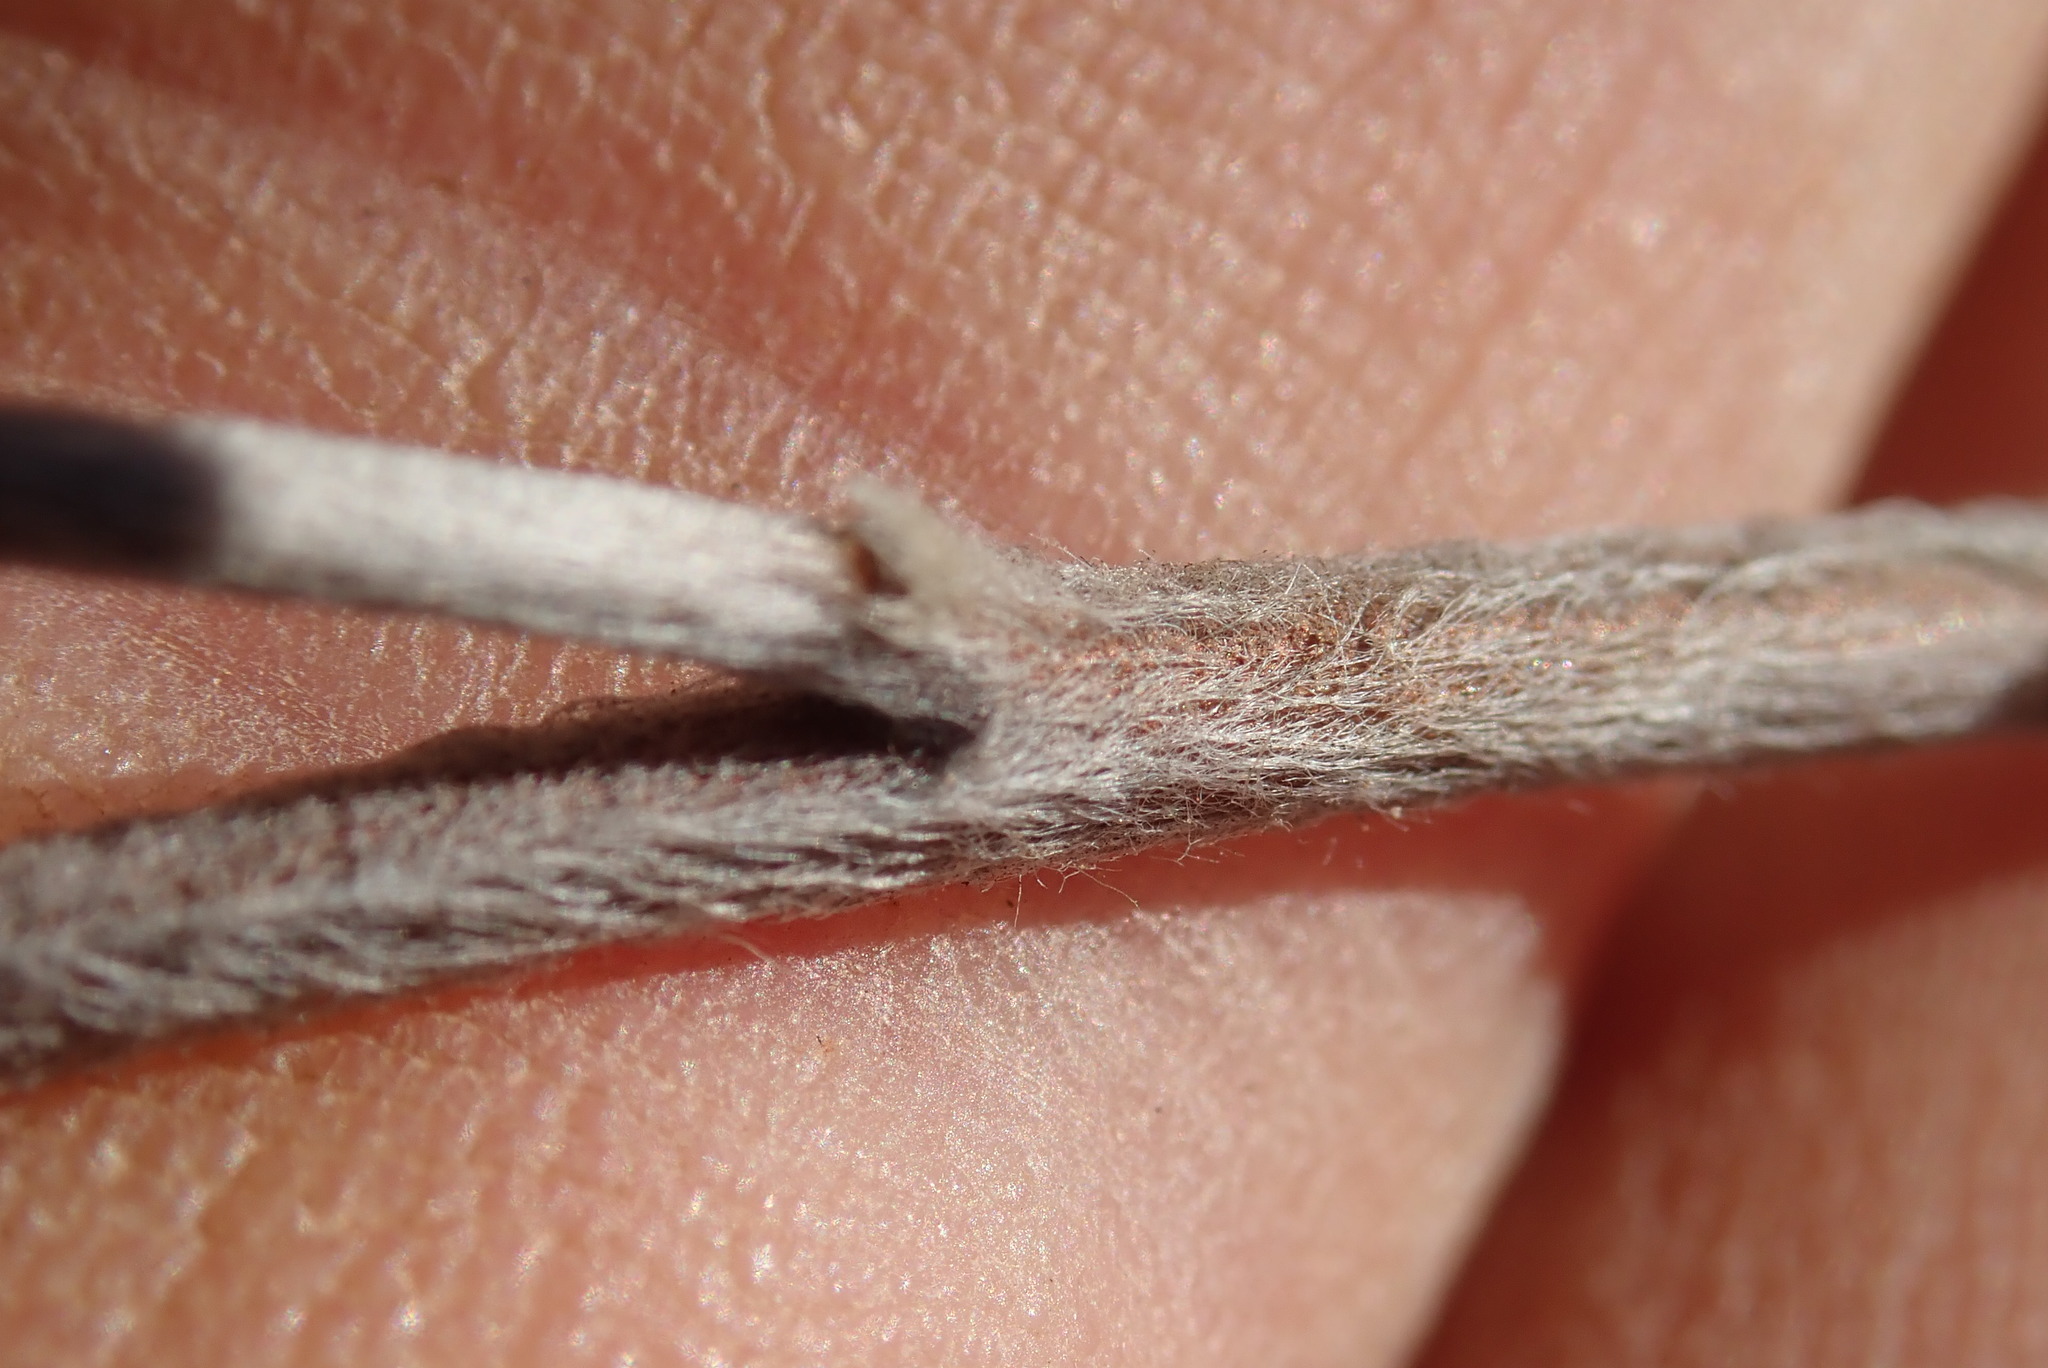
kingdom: Plantae
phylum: Tracheophyta
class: Magnoliopsida
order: Malvales
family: Thymelaeaceae
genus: Gnidia
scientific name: Gnidia canoargentea
